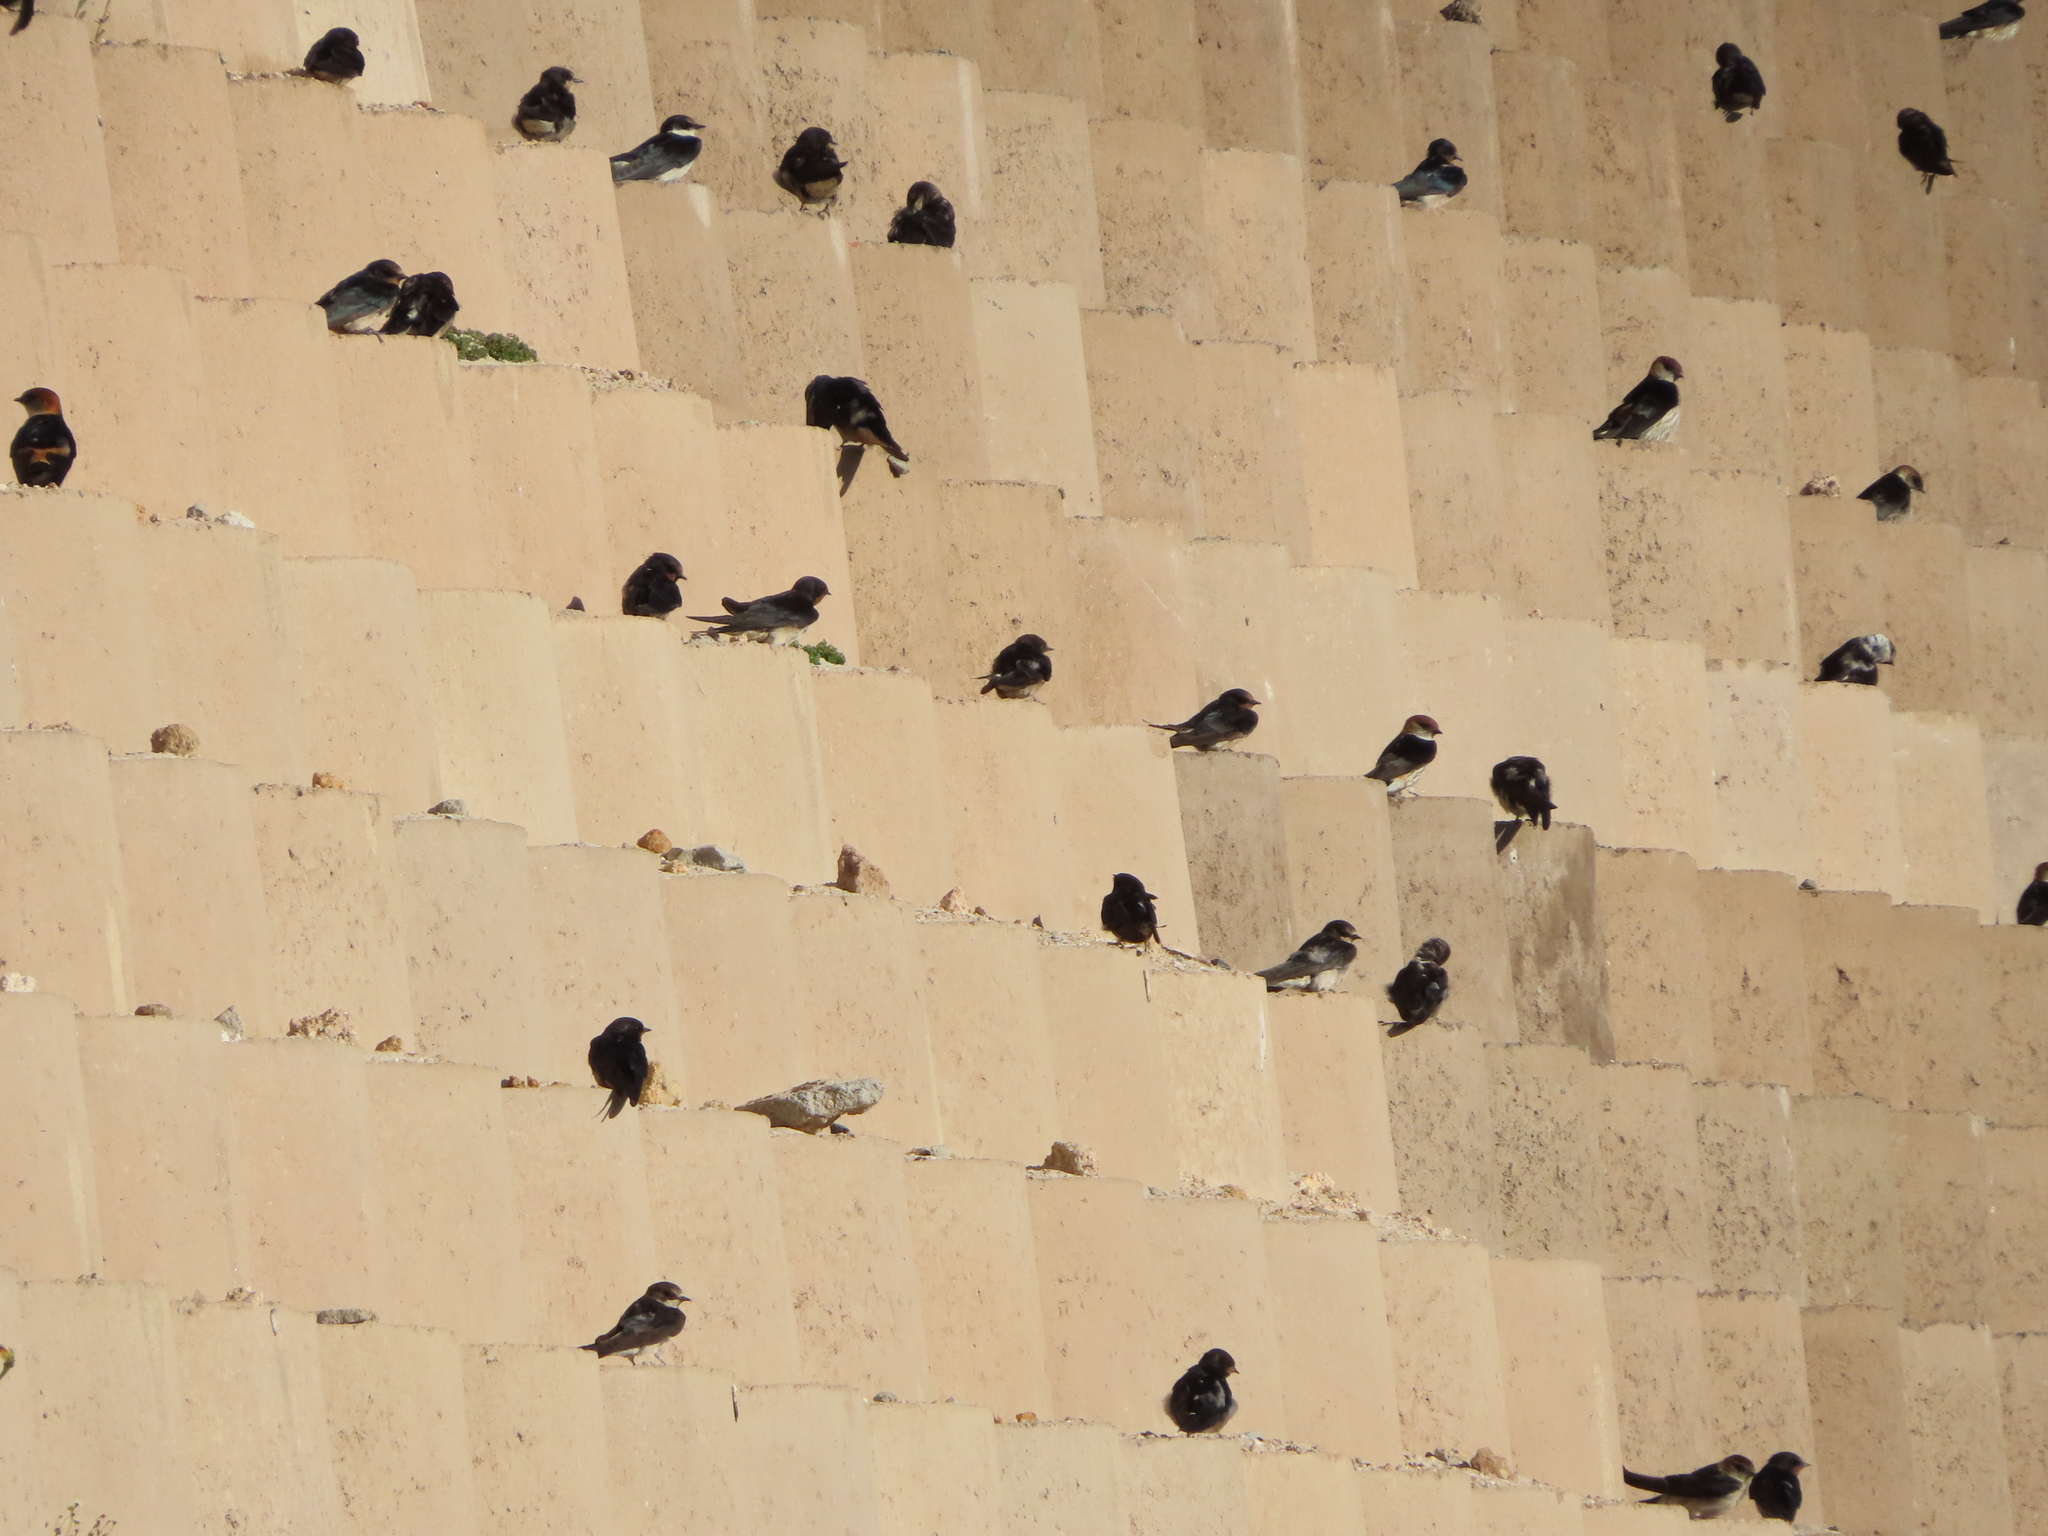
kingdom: Animalia
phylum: Chordata
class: Aves
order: Passeriformes
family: Hirundinidae
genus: Cecropis
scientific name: Cecropis cucullata
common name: Greater striped-swallow
